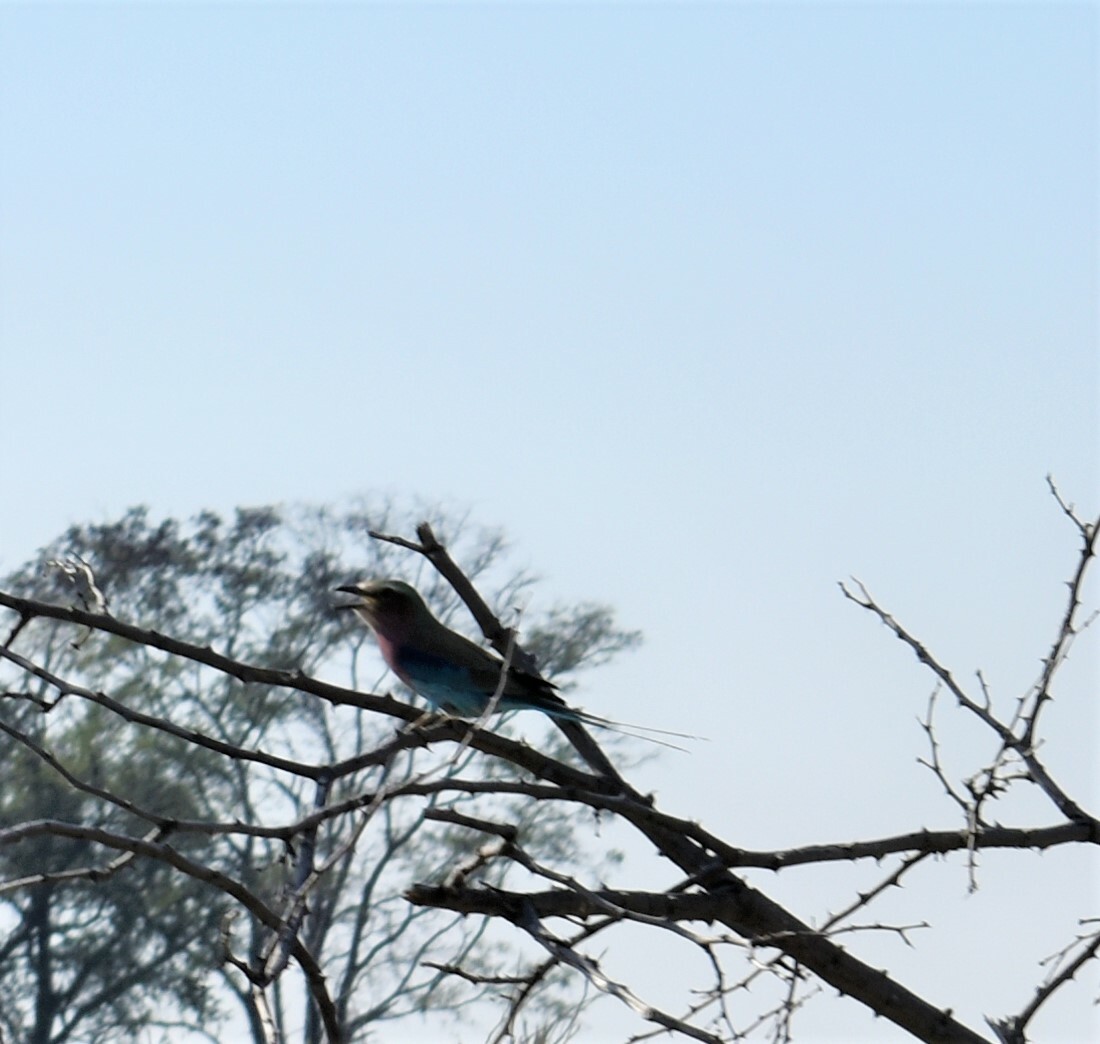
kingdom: Animalia
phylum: Chordata
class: Aves
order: Coraciiformes
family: Coraciidae
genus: Coracias
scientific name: Coracias caudatus
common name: Lilac-breasted roller
